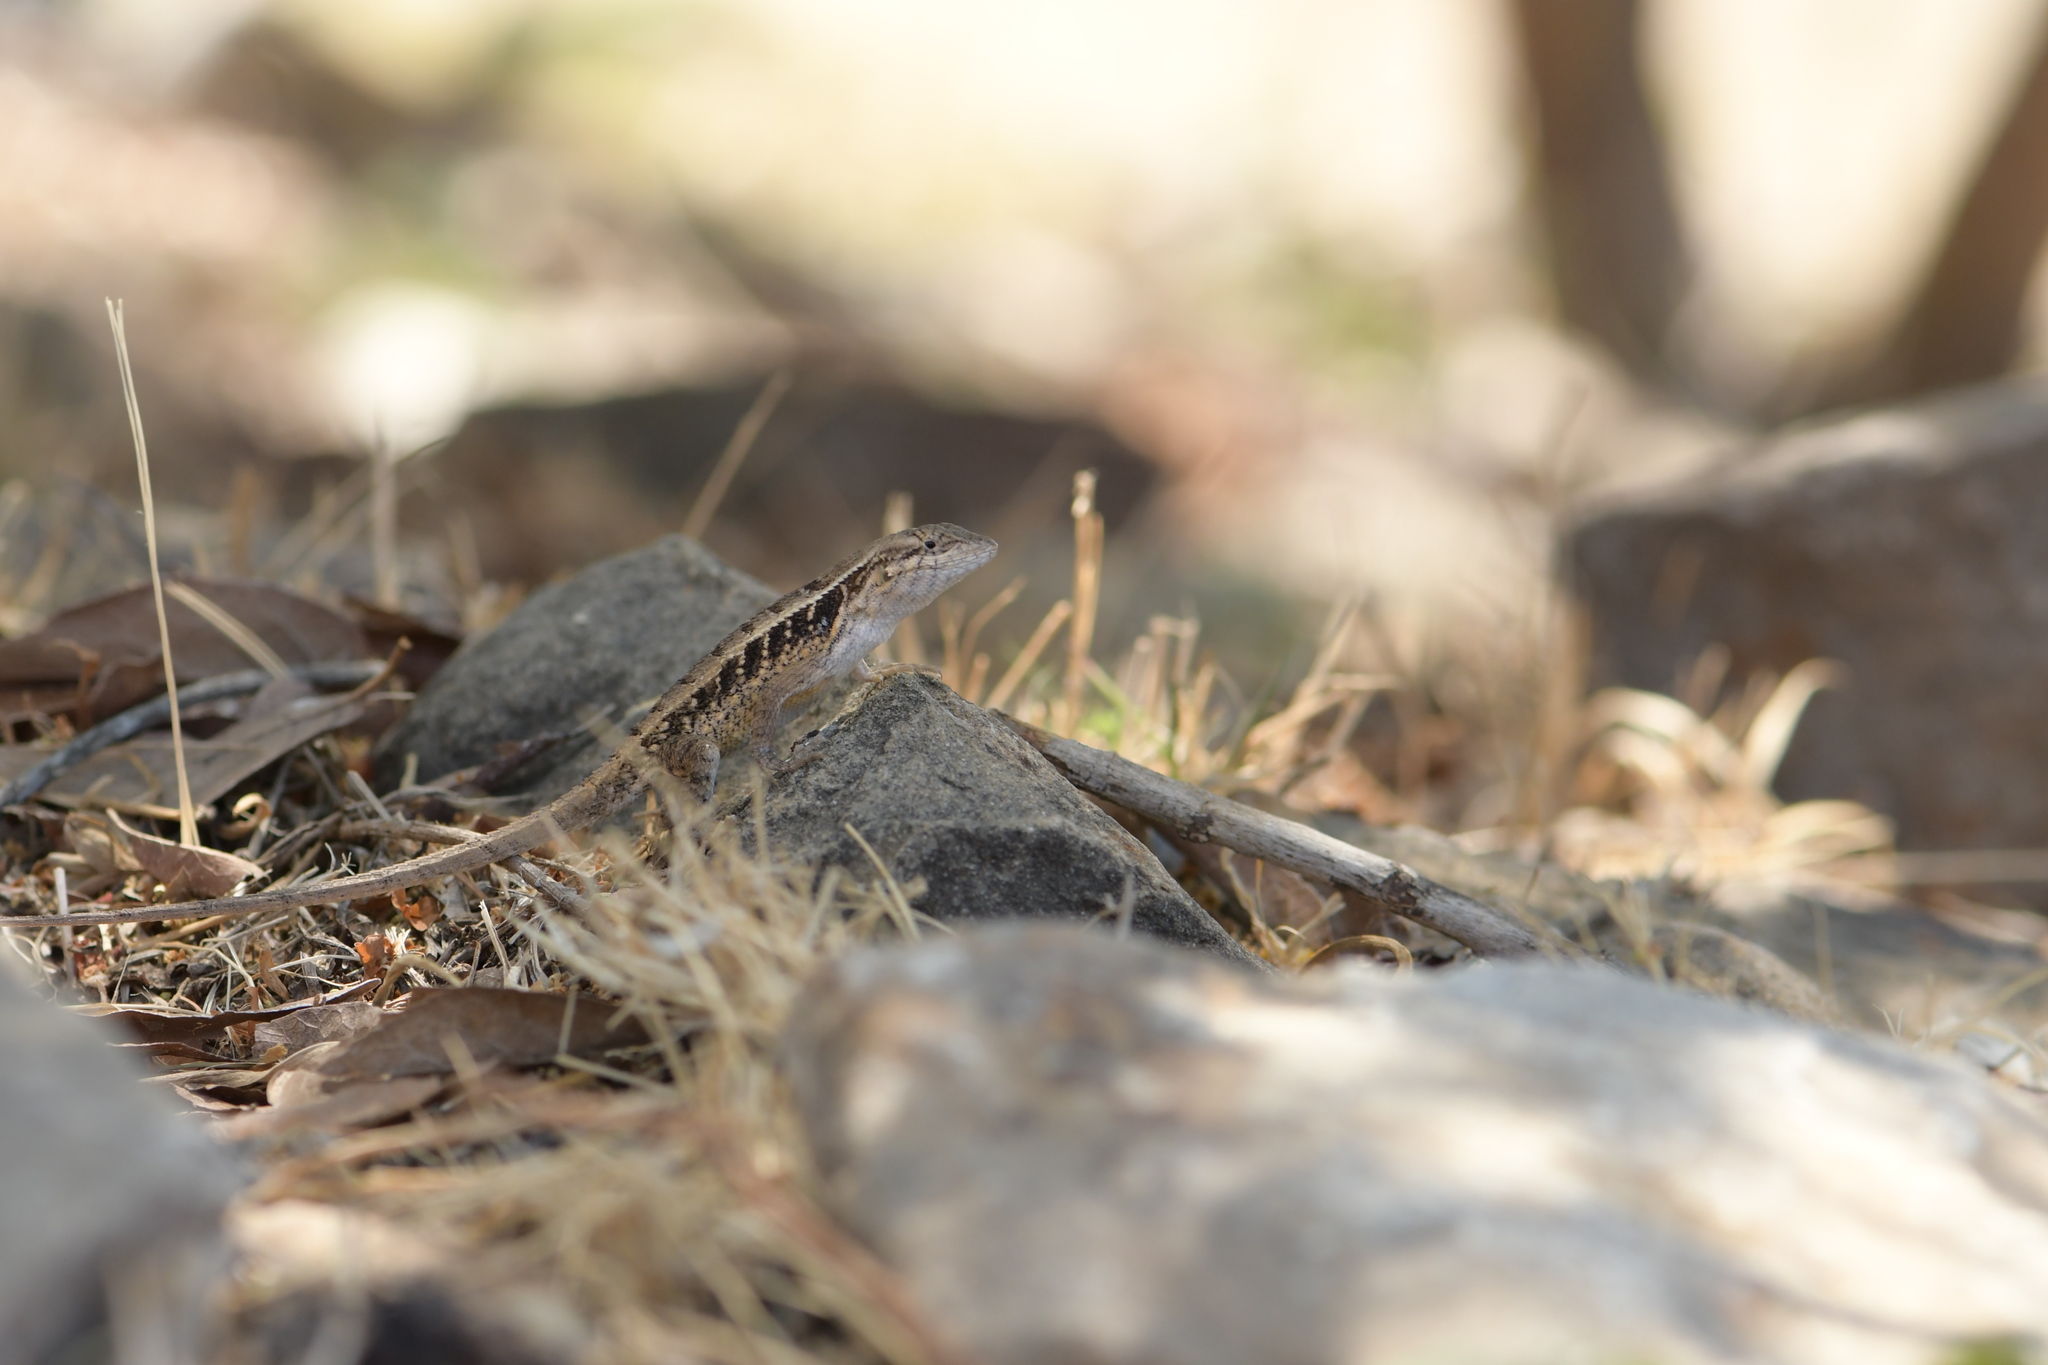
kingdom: Animalia
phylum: Chordata
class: Squamata
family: Phrynosomatidae
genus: Sceloporus
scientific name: Sceloporus siniferus
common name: Longtail spiny lizard
